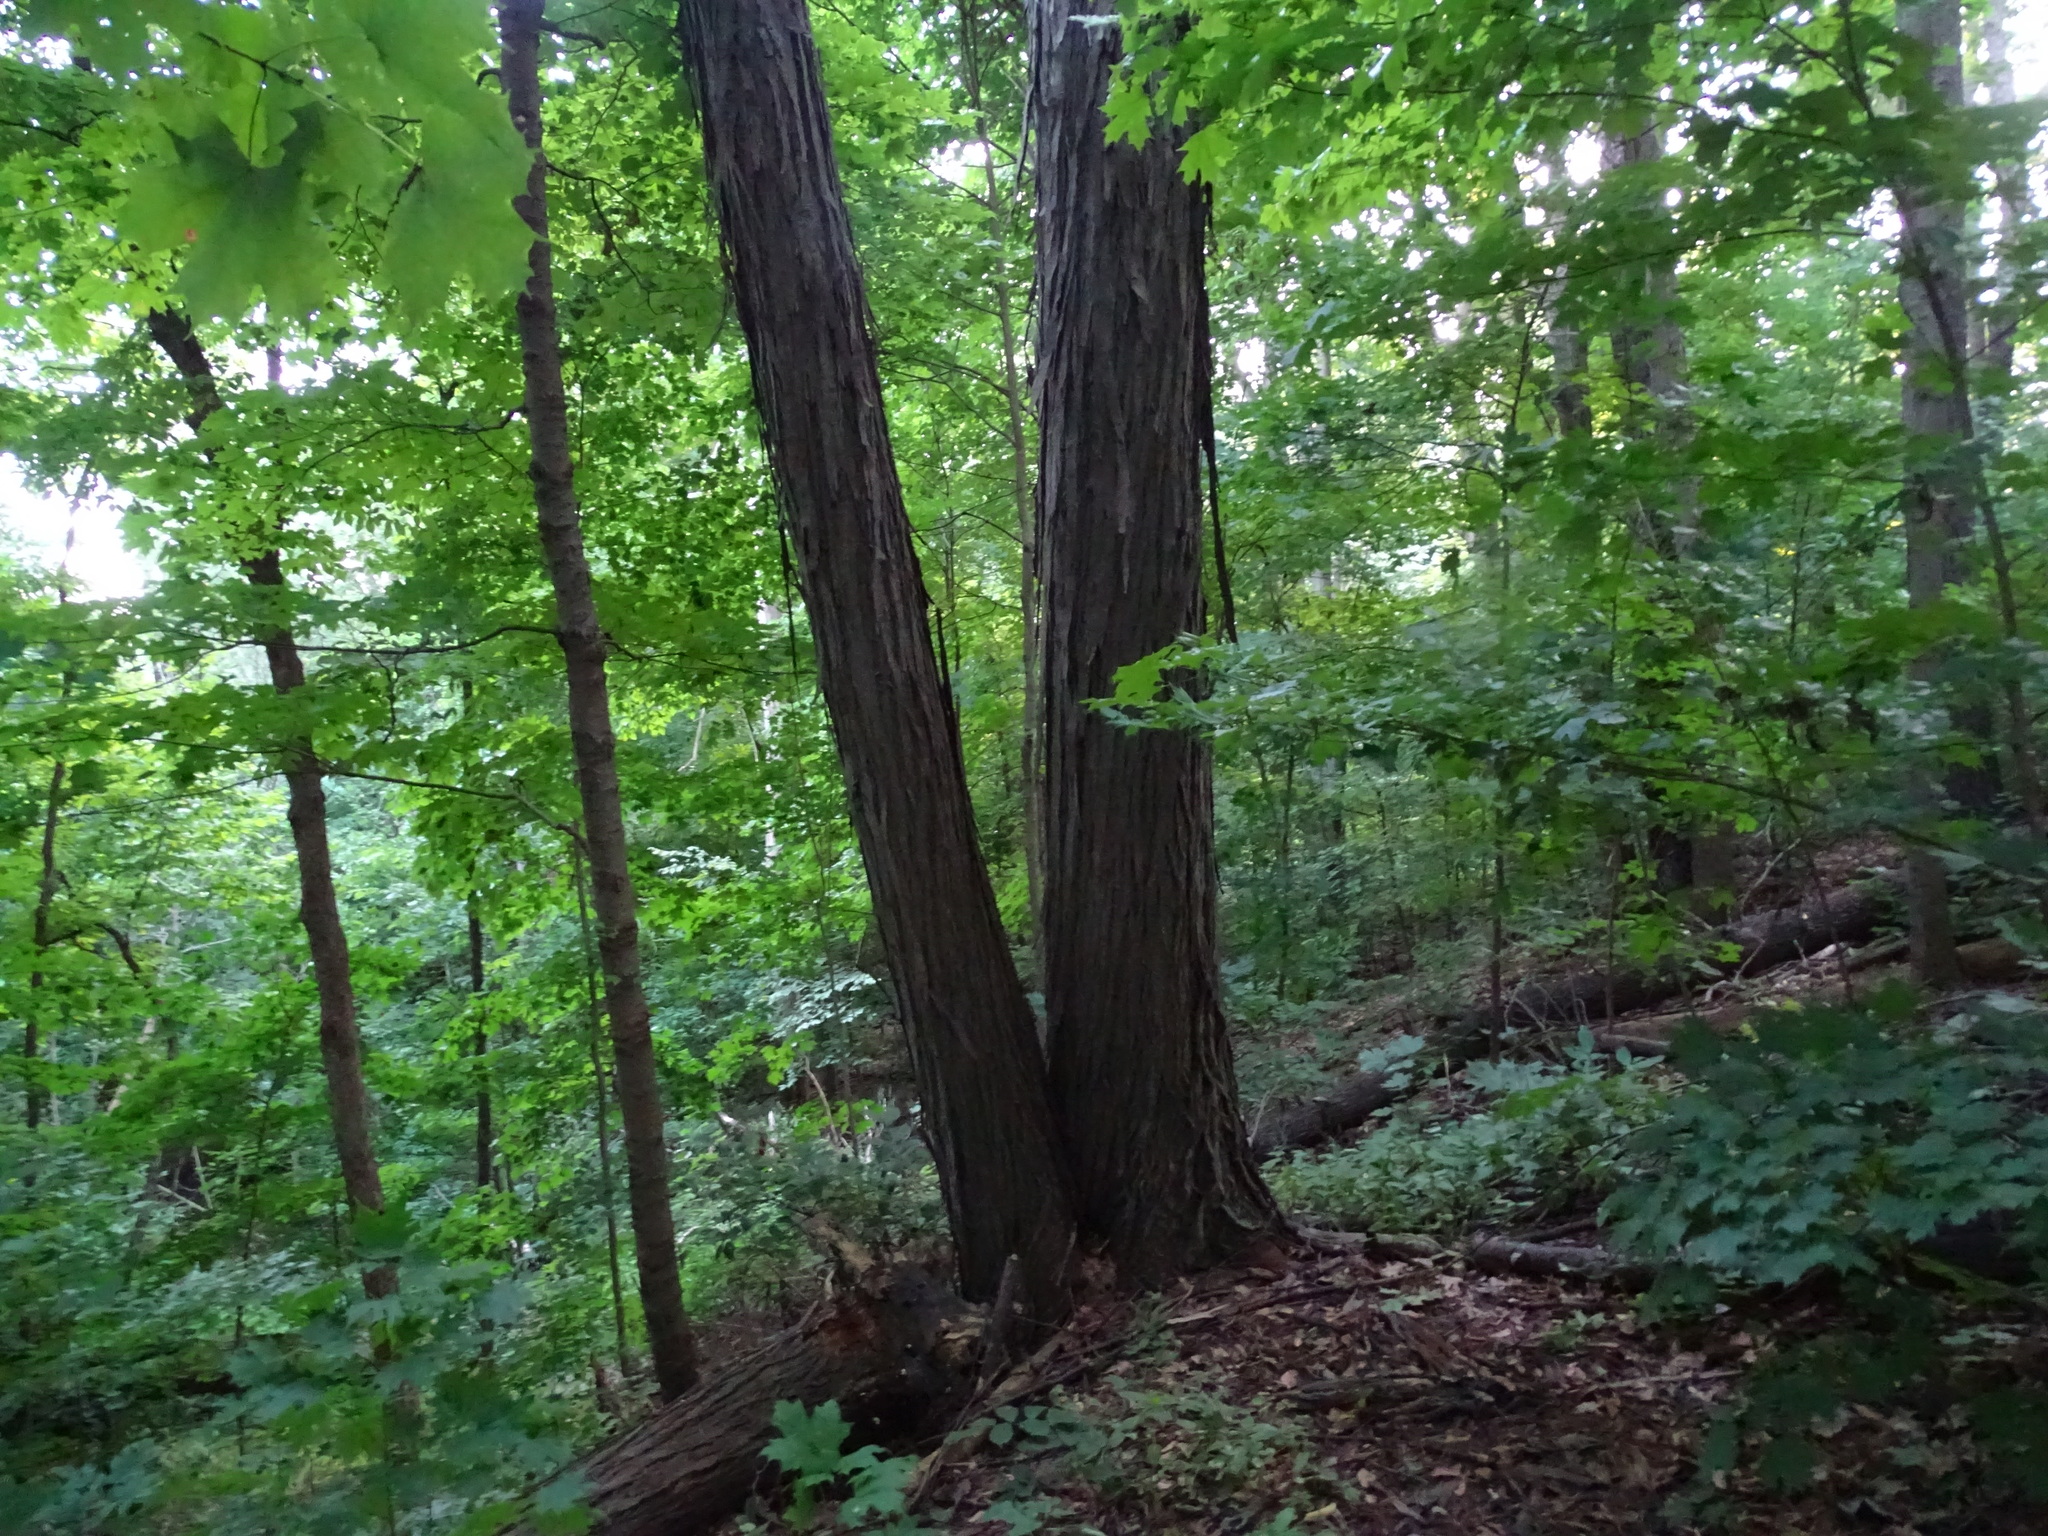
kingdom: Plantae
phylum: Tracheophyta
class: Magnoliopsida
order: Fagales
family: Juglandaceae
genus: Carya
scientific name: Carya ovata
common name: Shagbark hickory
